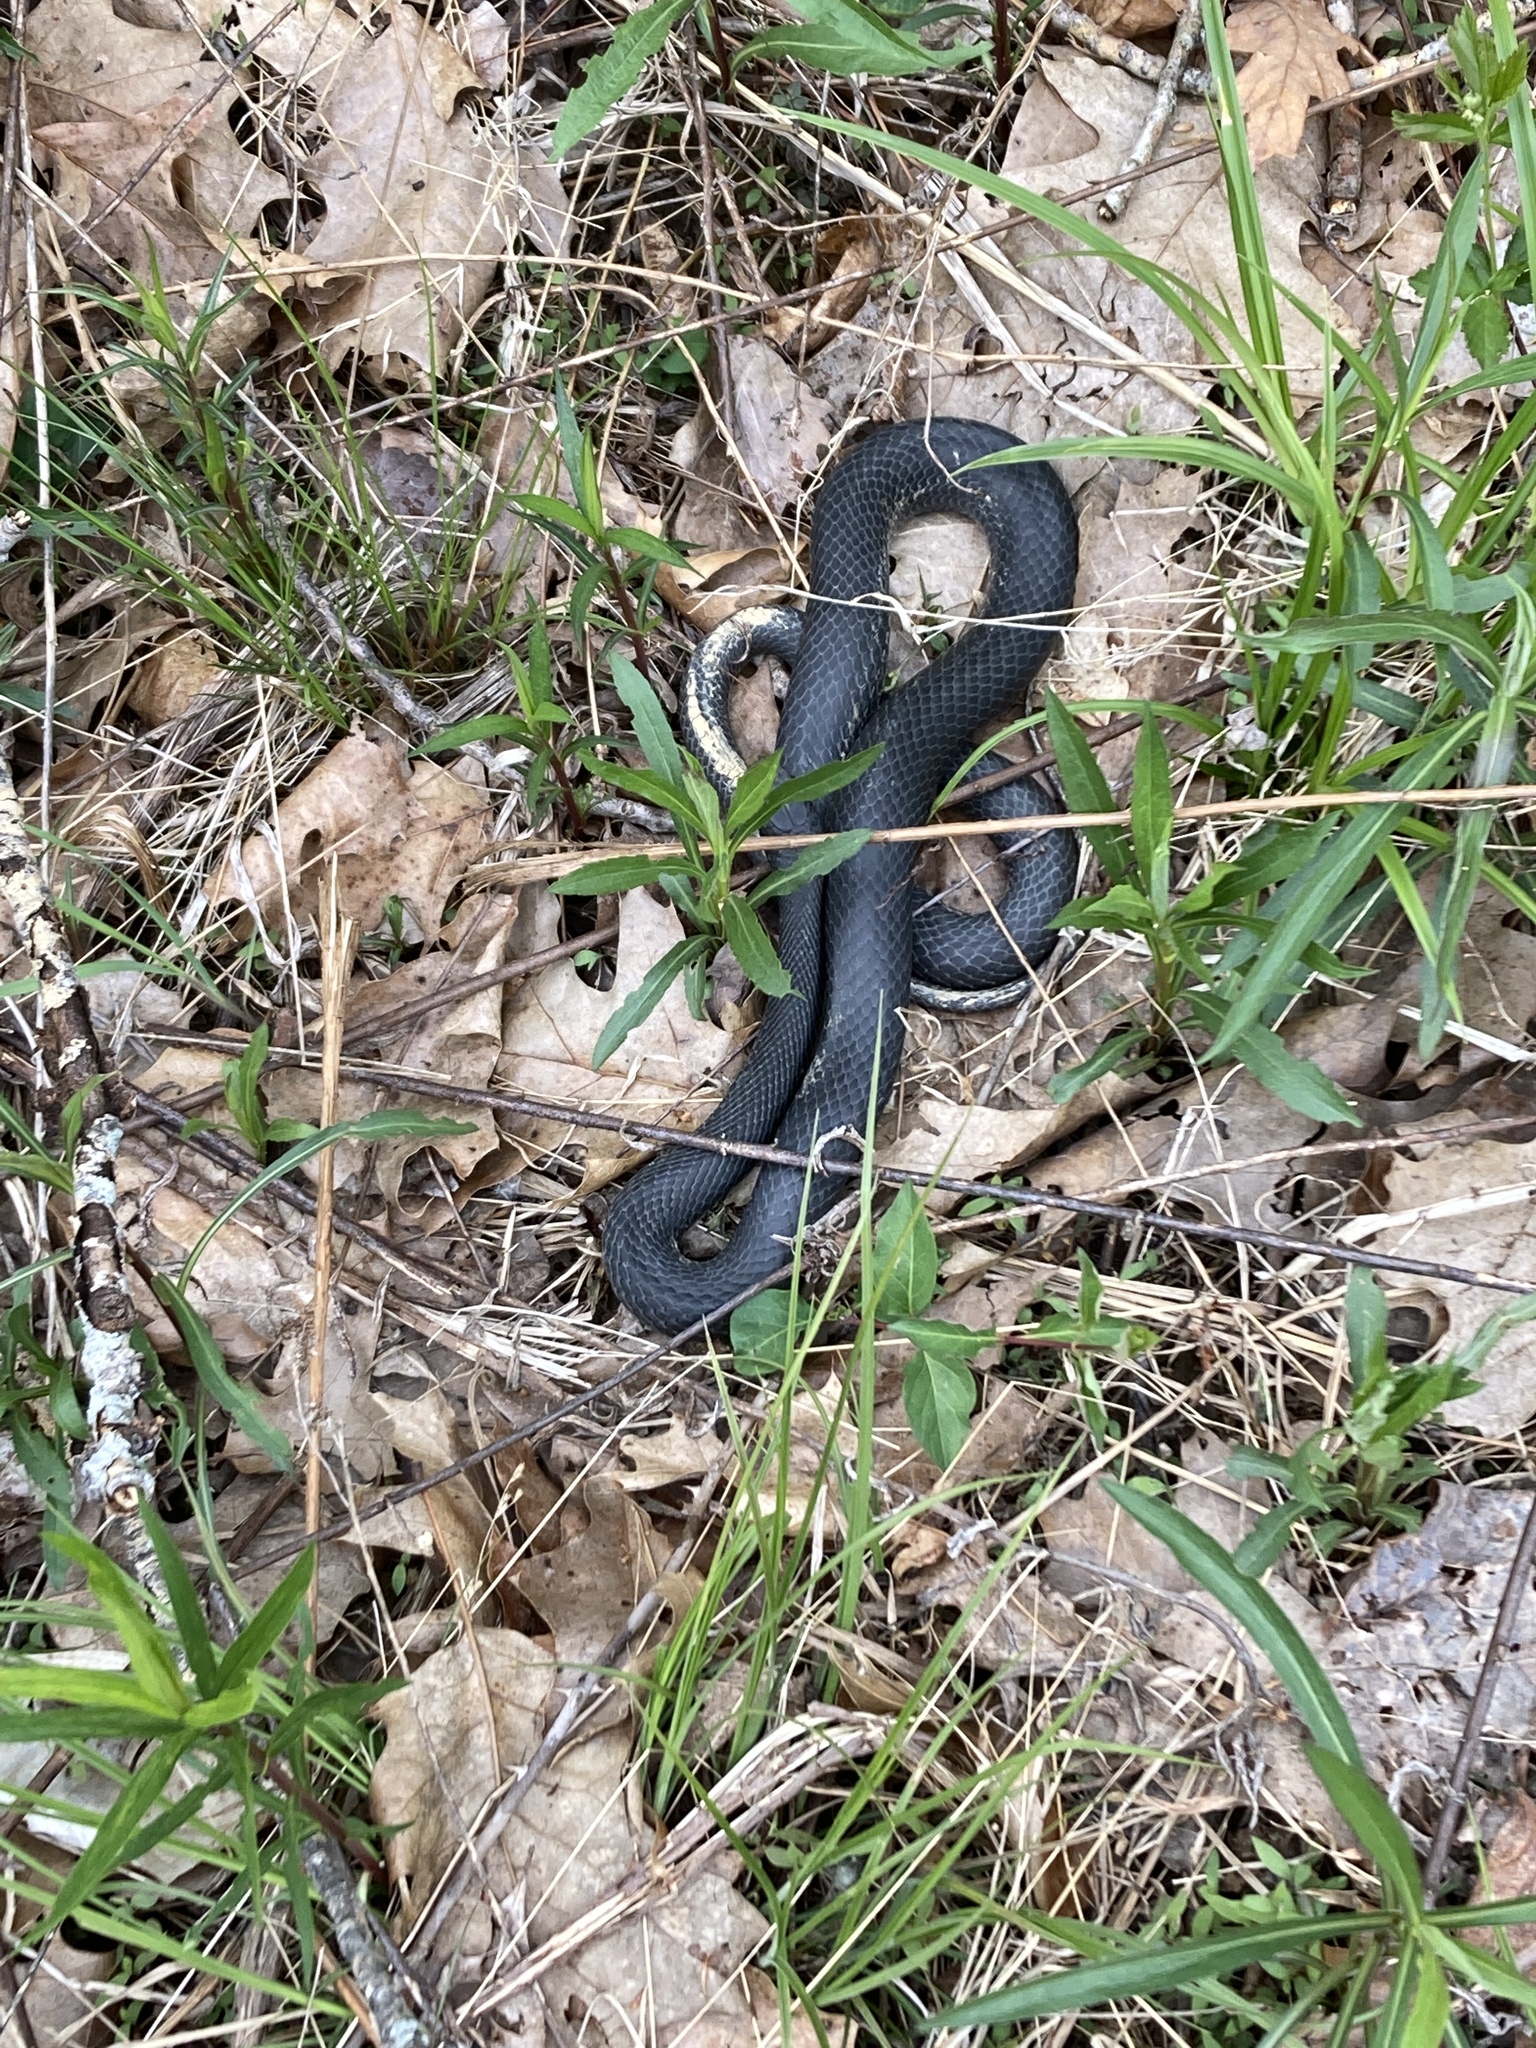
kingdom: Animalia
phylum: Chordata
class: Squamata
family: Colubridae
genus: Coluber
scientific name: Coluber constrictor
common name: Eastern racer
